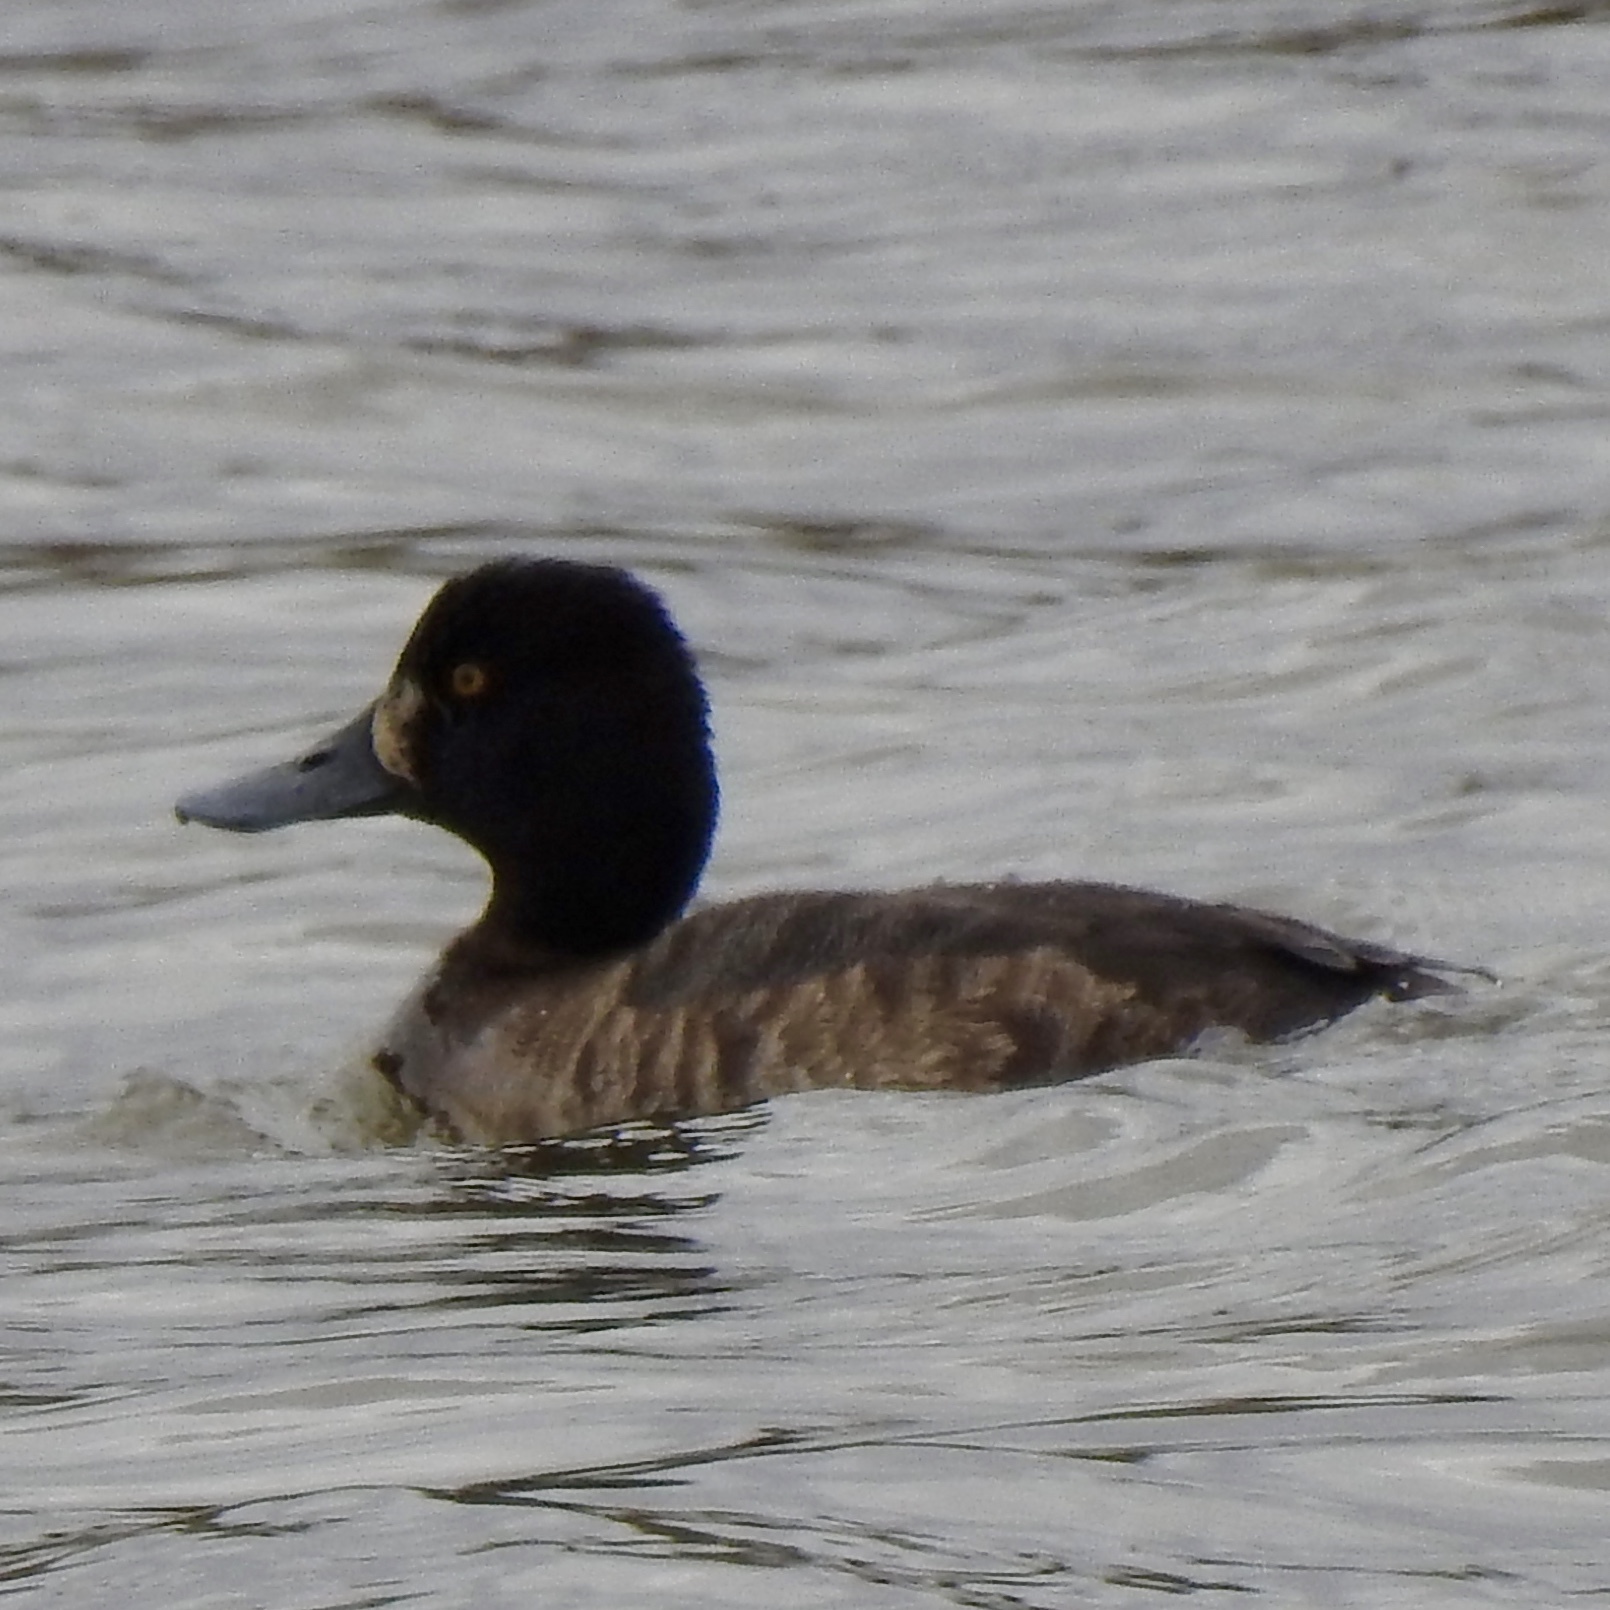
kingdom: Animalia
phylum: Chordata
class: Aves
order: Anseriformes
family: Anatidae
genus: Aythya
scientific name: Aythya marila
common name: Greater scaup
